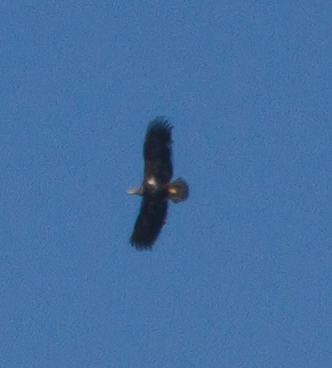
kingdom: Animalia
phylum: Chordata
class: Aves
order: Accipitriformes
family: Accipitridae
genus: Haliaeetus
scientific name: Haliaeetus leucocephalus
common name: Bald eagle
